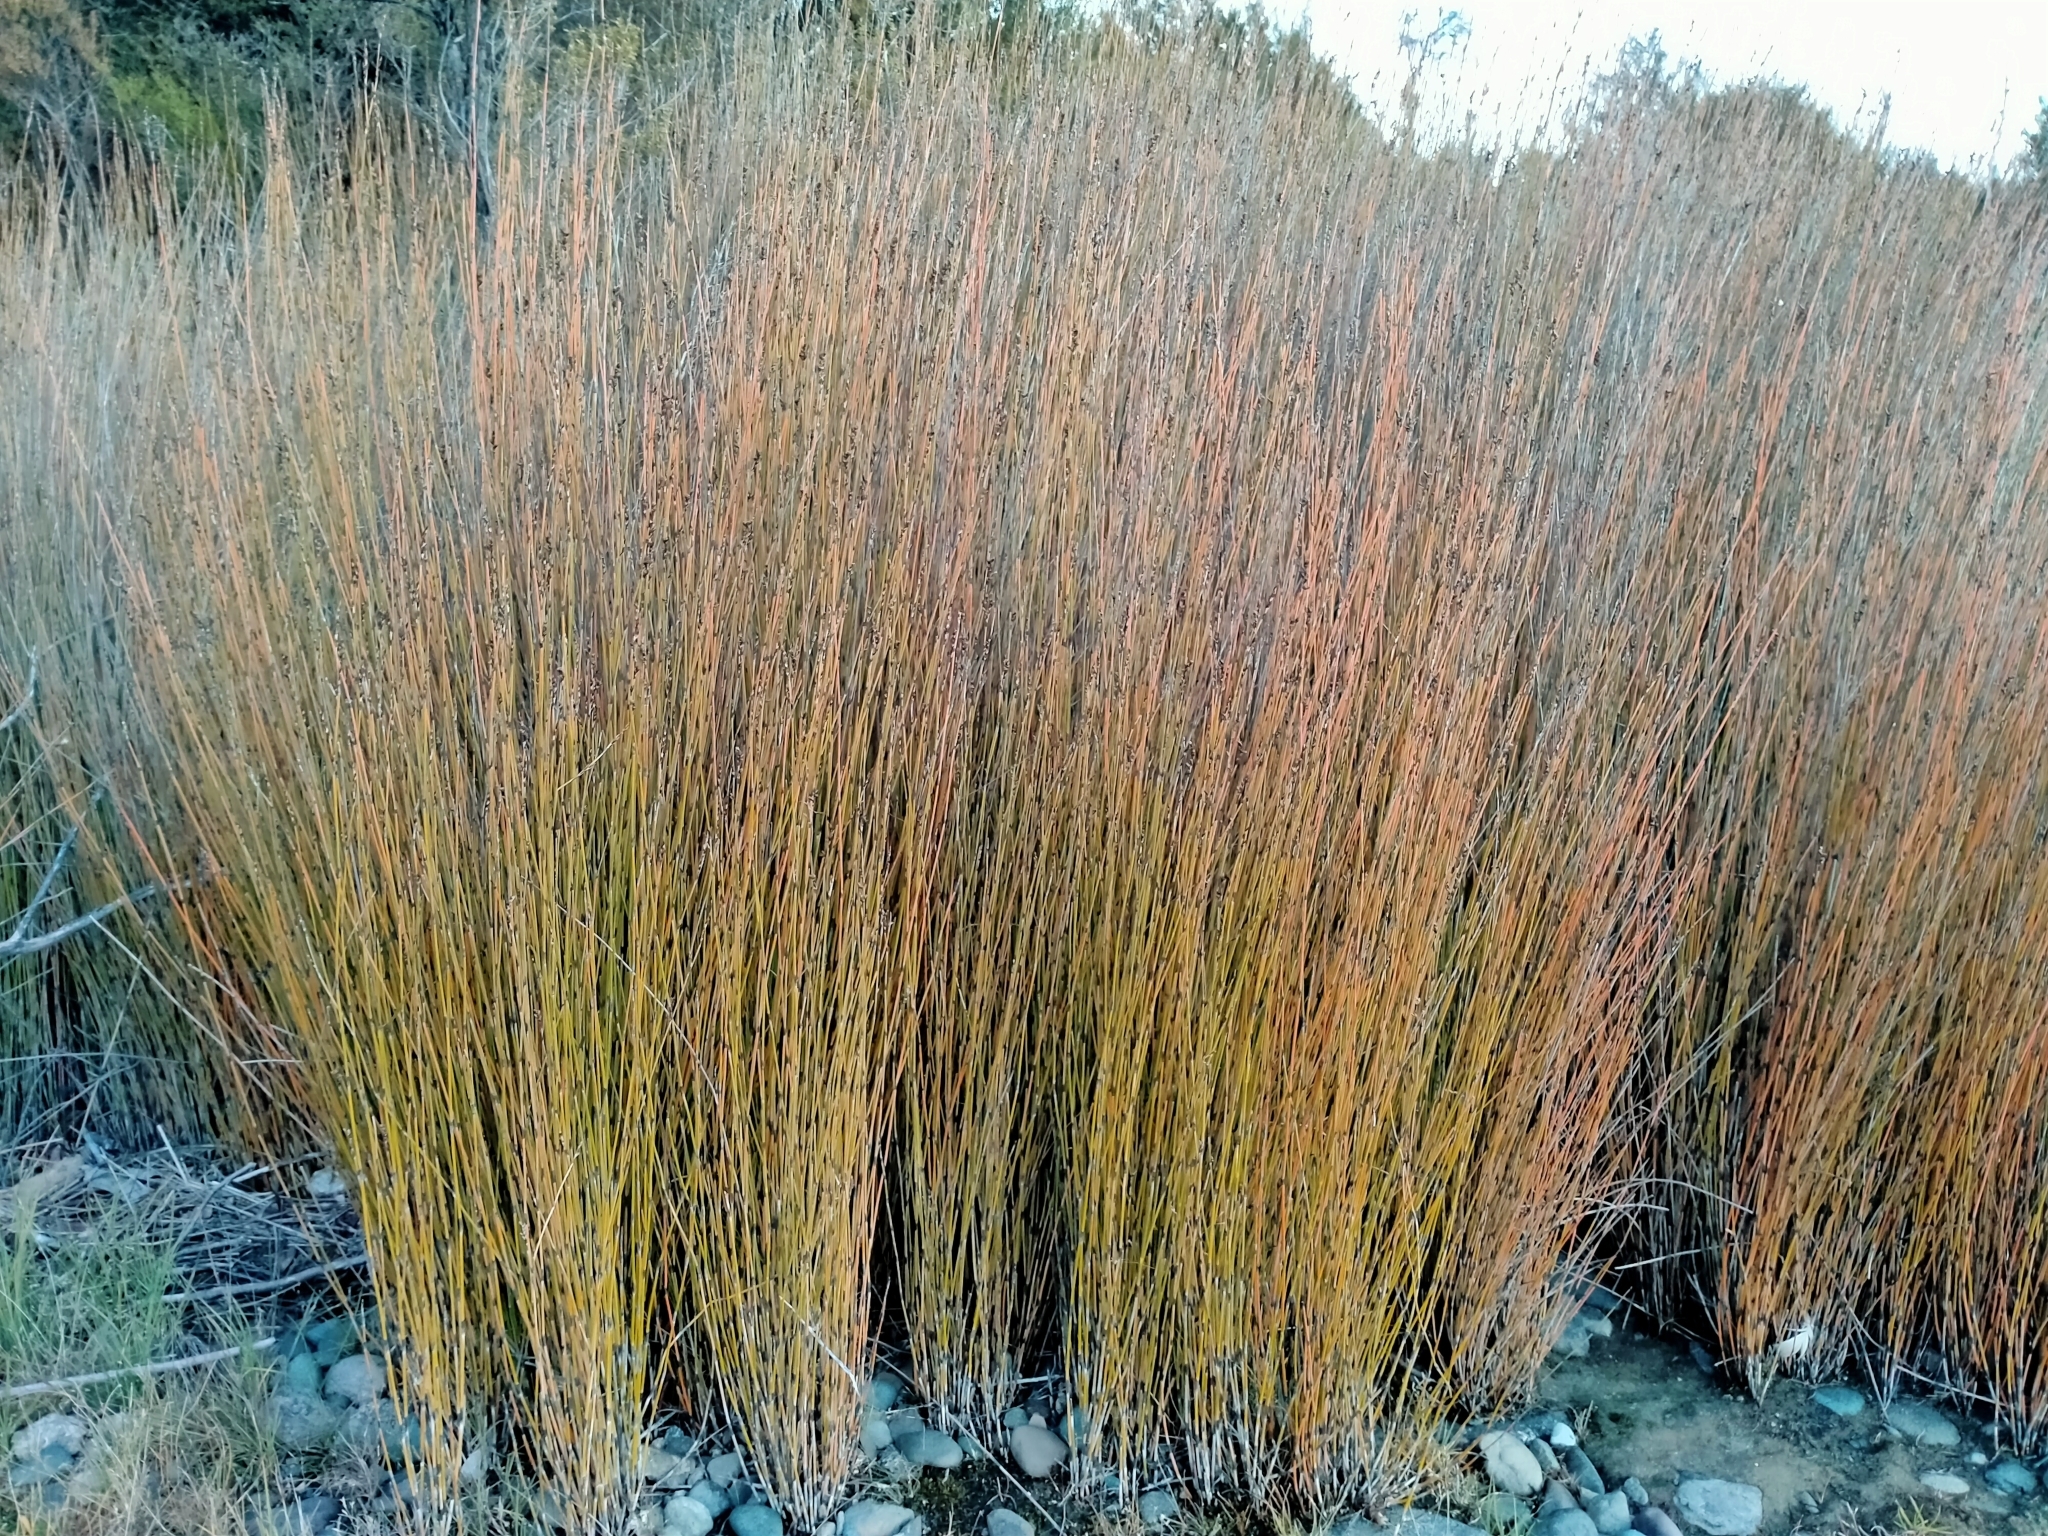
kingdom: Plantae
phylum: Tracheophyta
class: Liliopsida
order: Poales
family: Restionaceae
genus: Apodasmia
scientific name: Apodasmia similis
